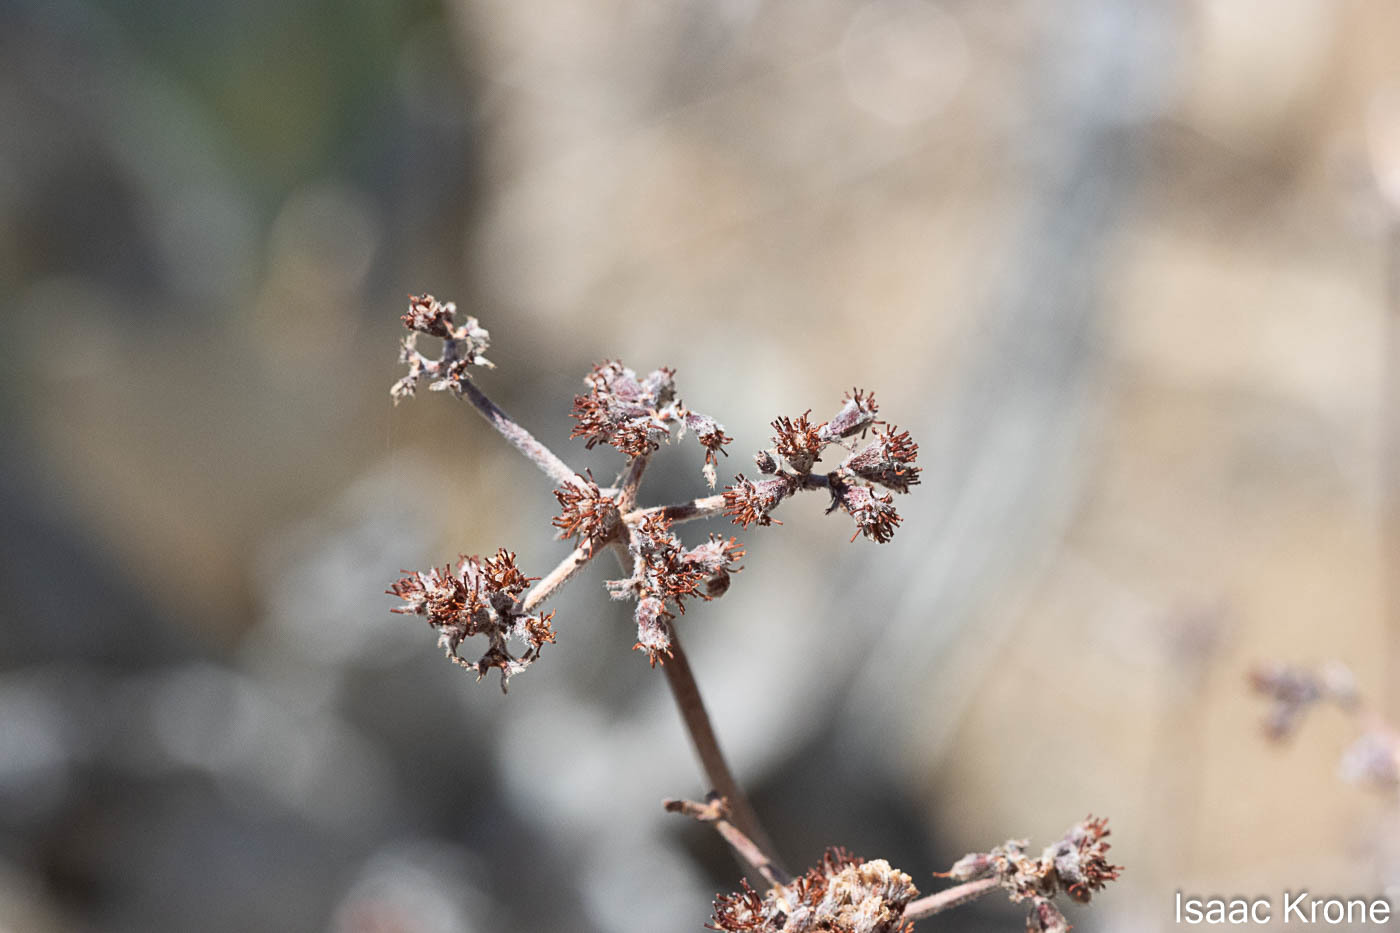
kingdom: Plantae
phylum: Tracheophyta
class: Magnoliopsida
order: Caryophyllales
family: Polygonaceae
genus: Eriogonum
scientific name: Eriogonum fasciculatum
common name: California wild buckwheat
